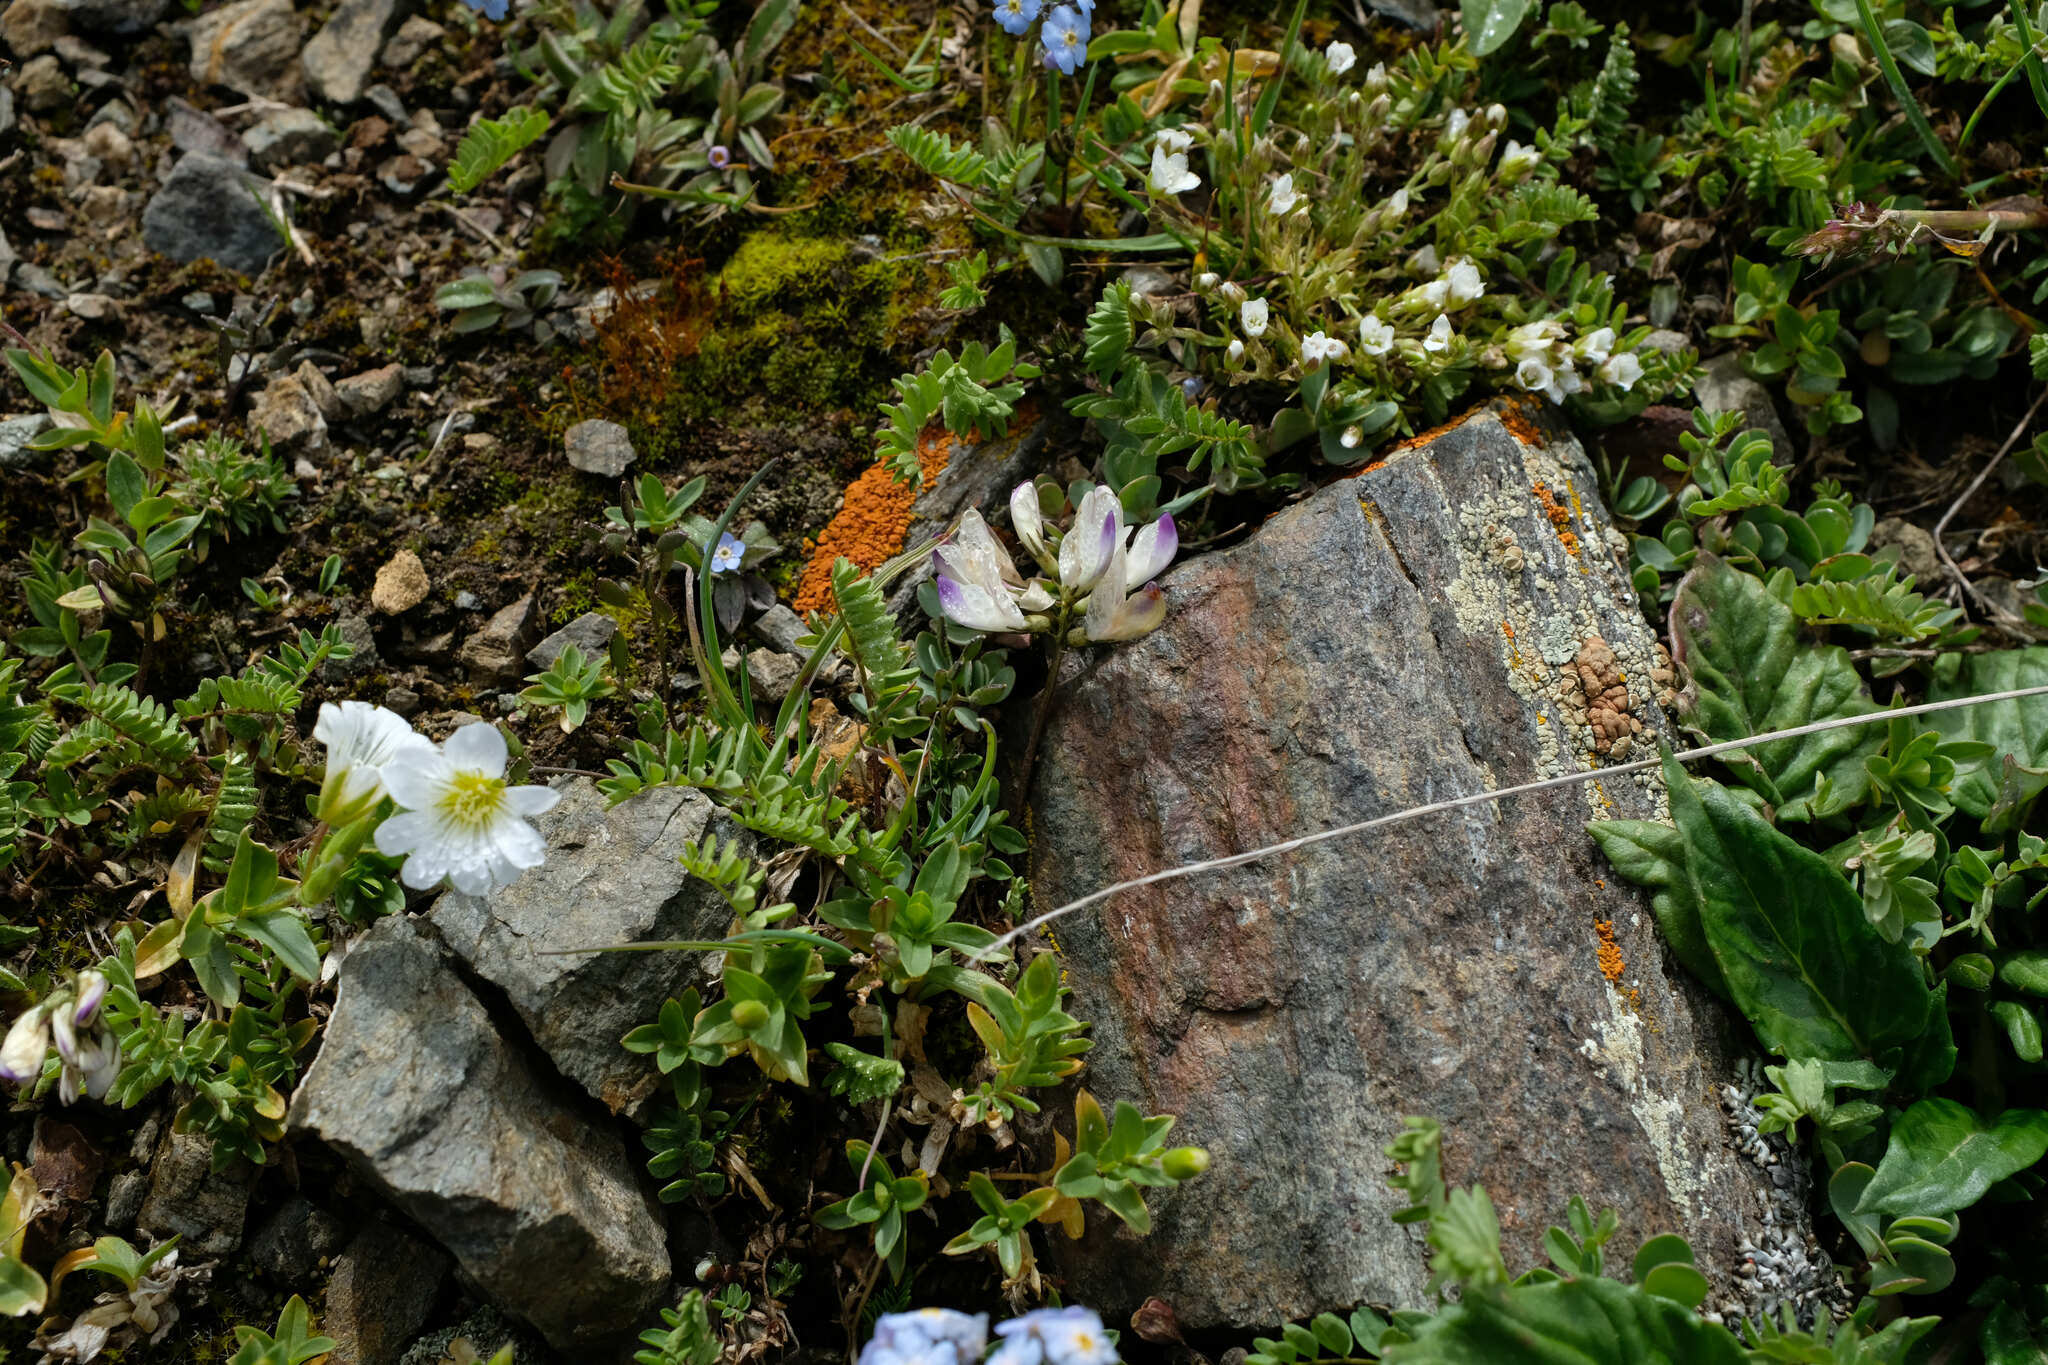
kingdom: Plantae
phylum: Tracheophyta
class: Magnoliopsida
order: Fabales
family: Fabaceae
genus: Astragalus
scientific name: Astragalus alpinus
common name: Alpine milk-vetch
